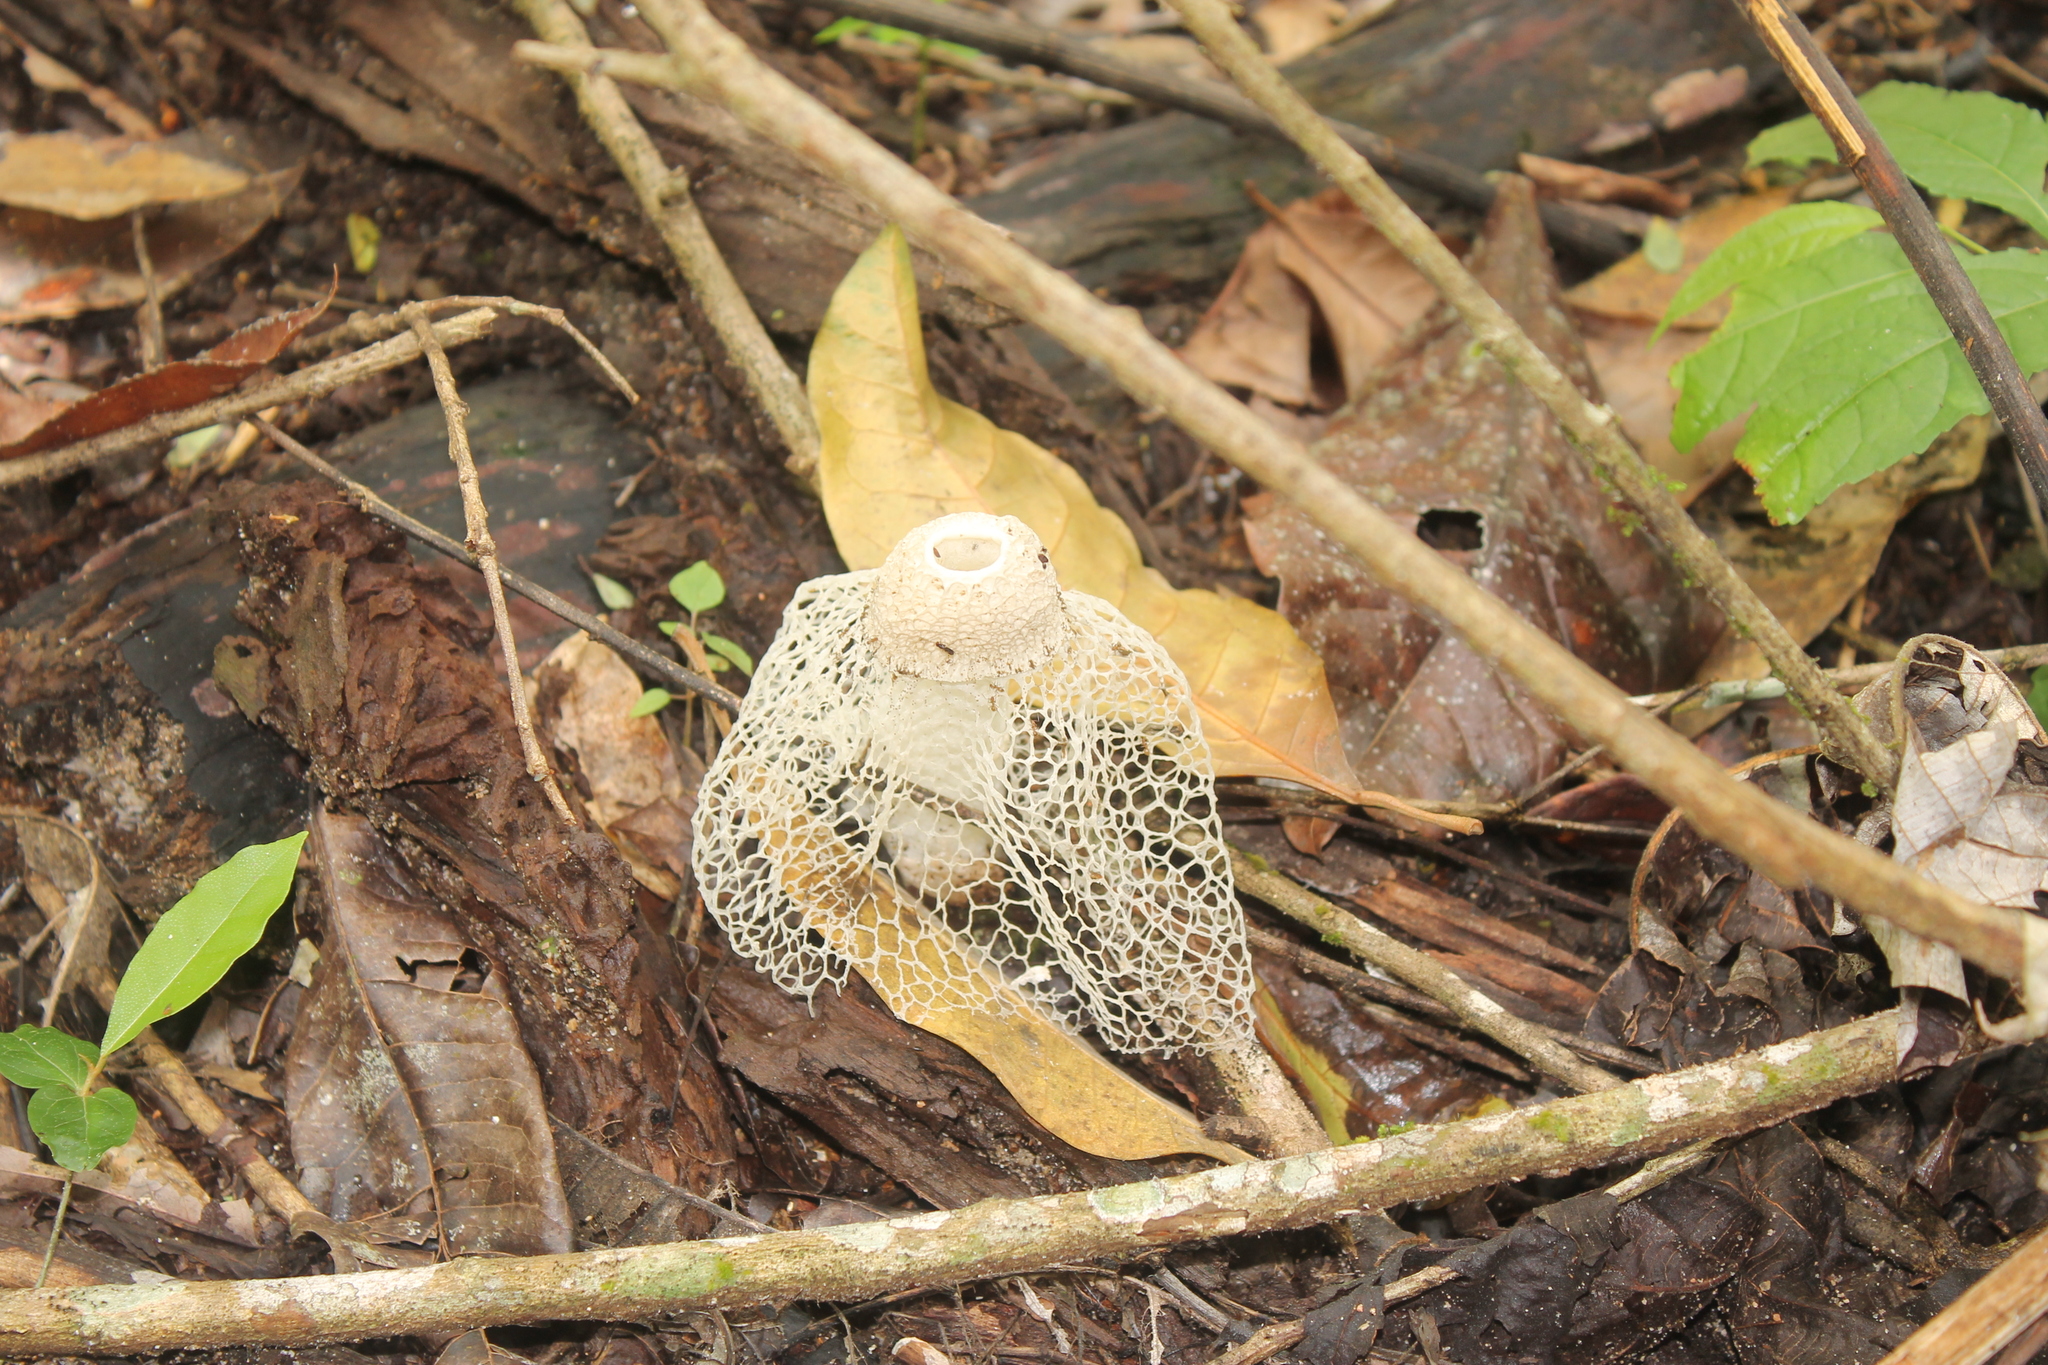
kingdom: Fungi
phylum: Basidiomycota
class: Agaricomycetes
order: Phallales
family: Phallaceae
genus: Phallus
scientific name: Phallus indusiatus
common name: Bridal veil stinkhorn
